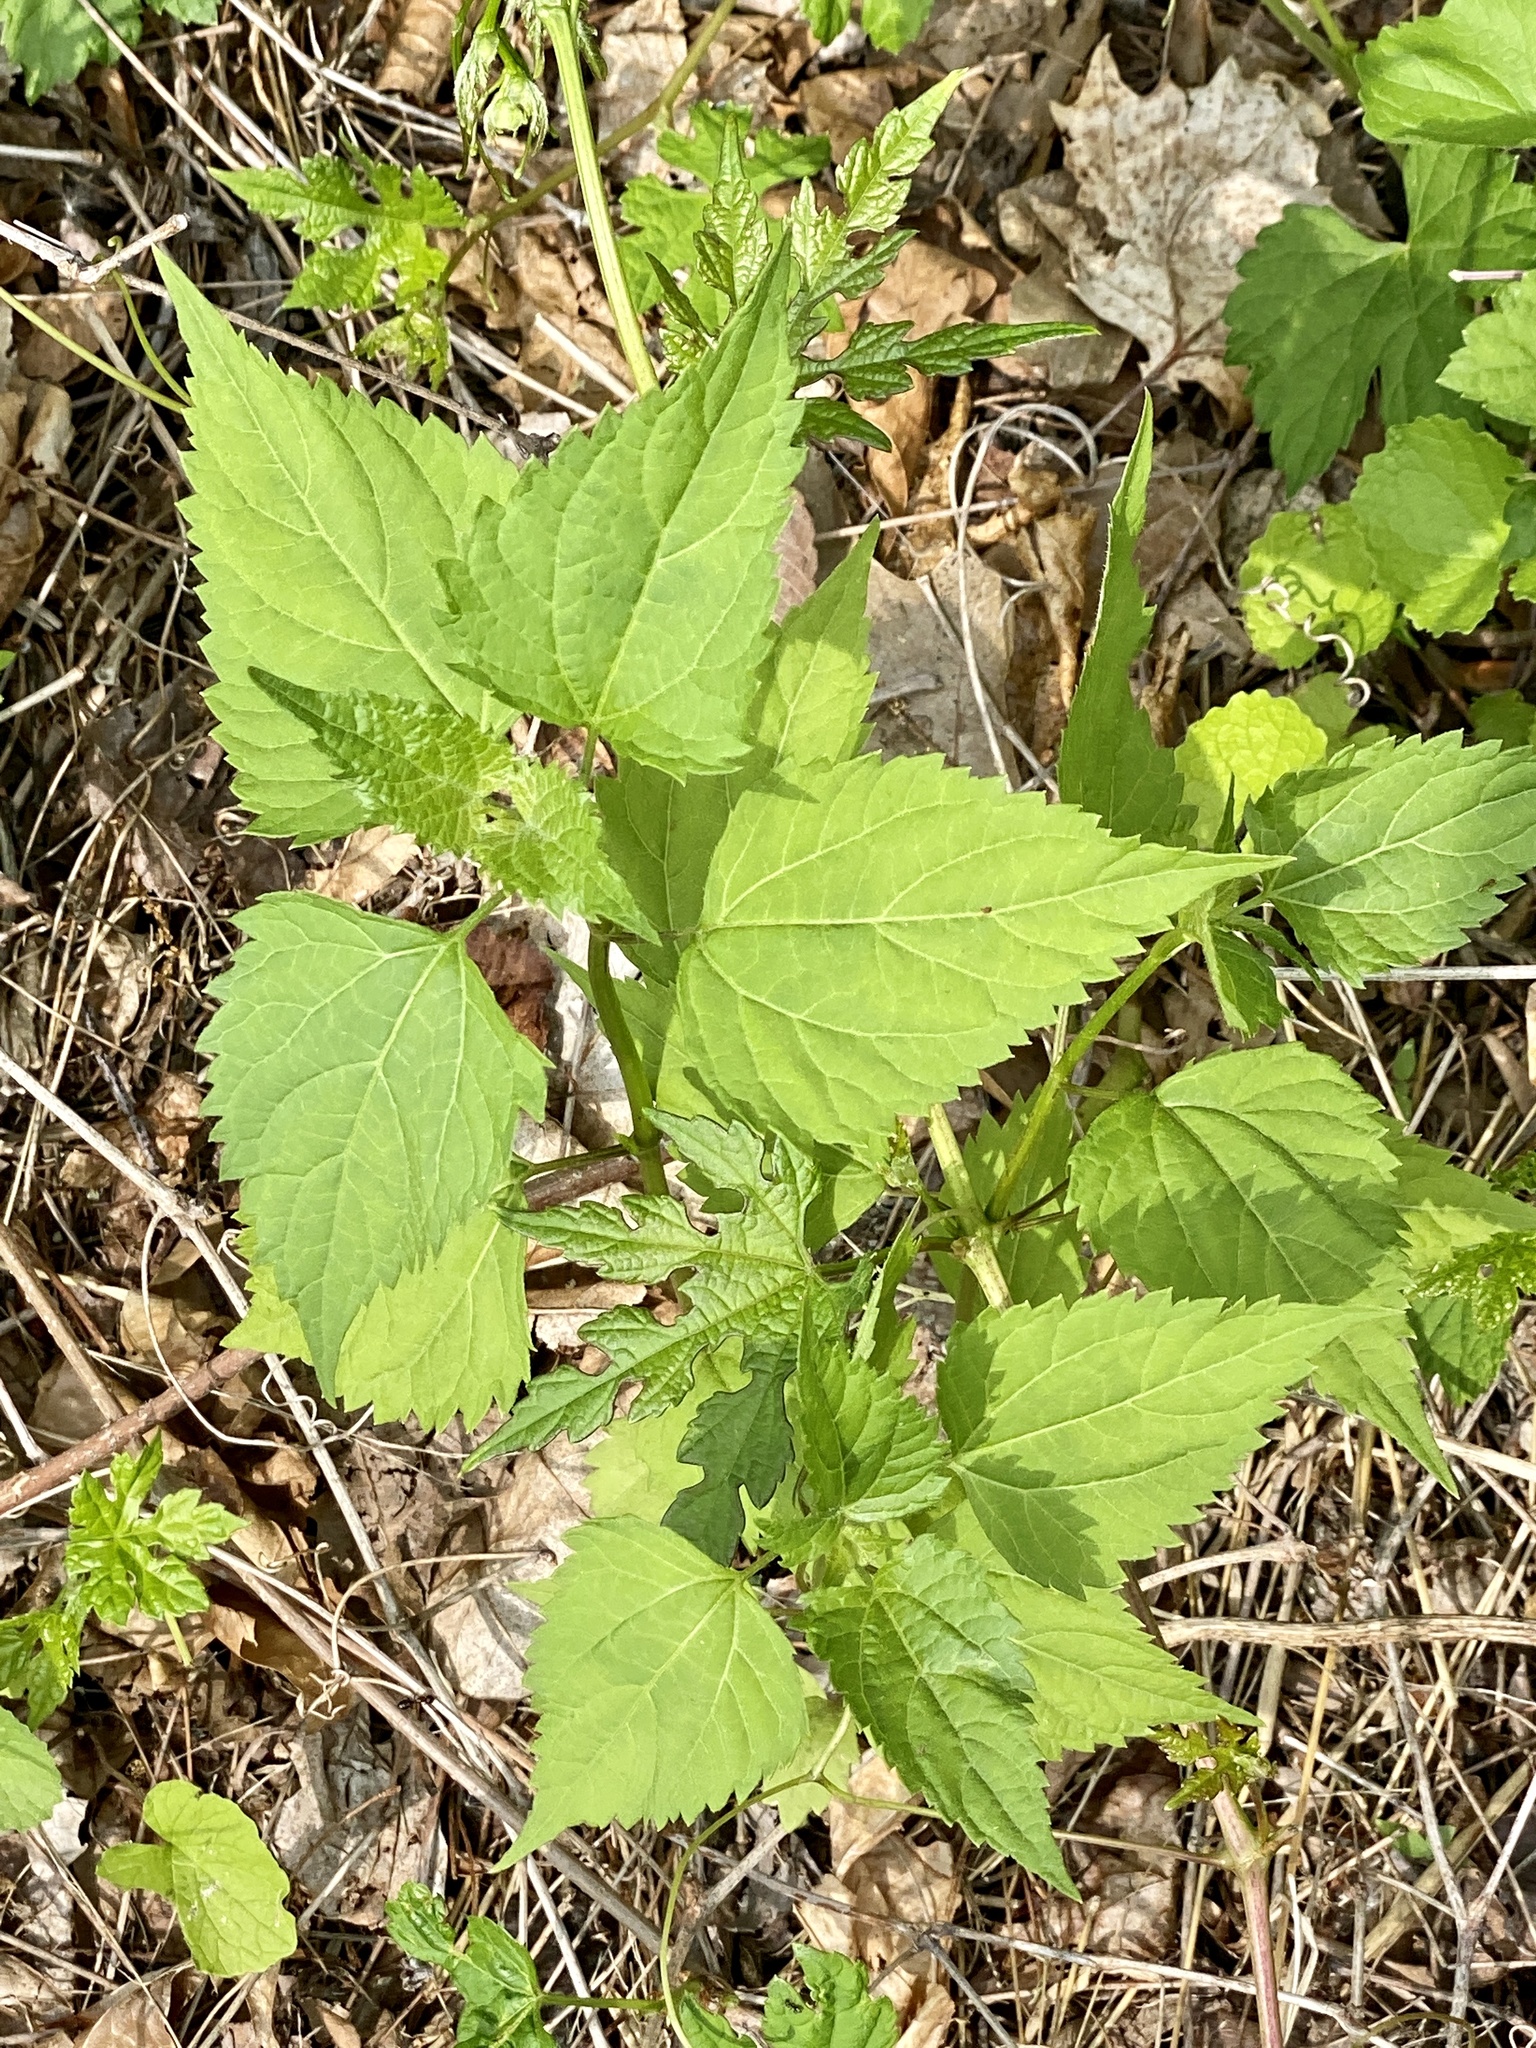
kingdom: Plantae
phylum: Tracheophyta
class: Magnoliopsida
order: Asterales
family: Asteraceae
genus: Ageratina
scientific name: Ageratina altissima
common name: White snakeroot
